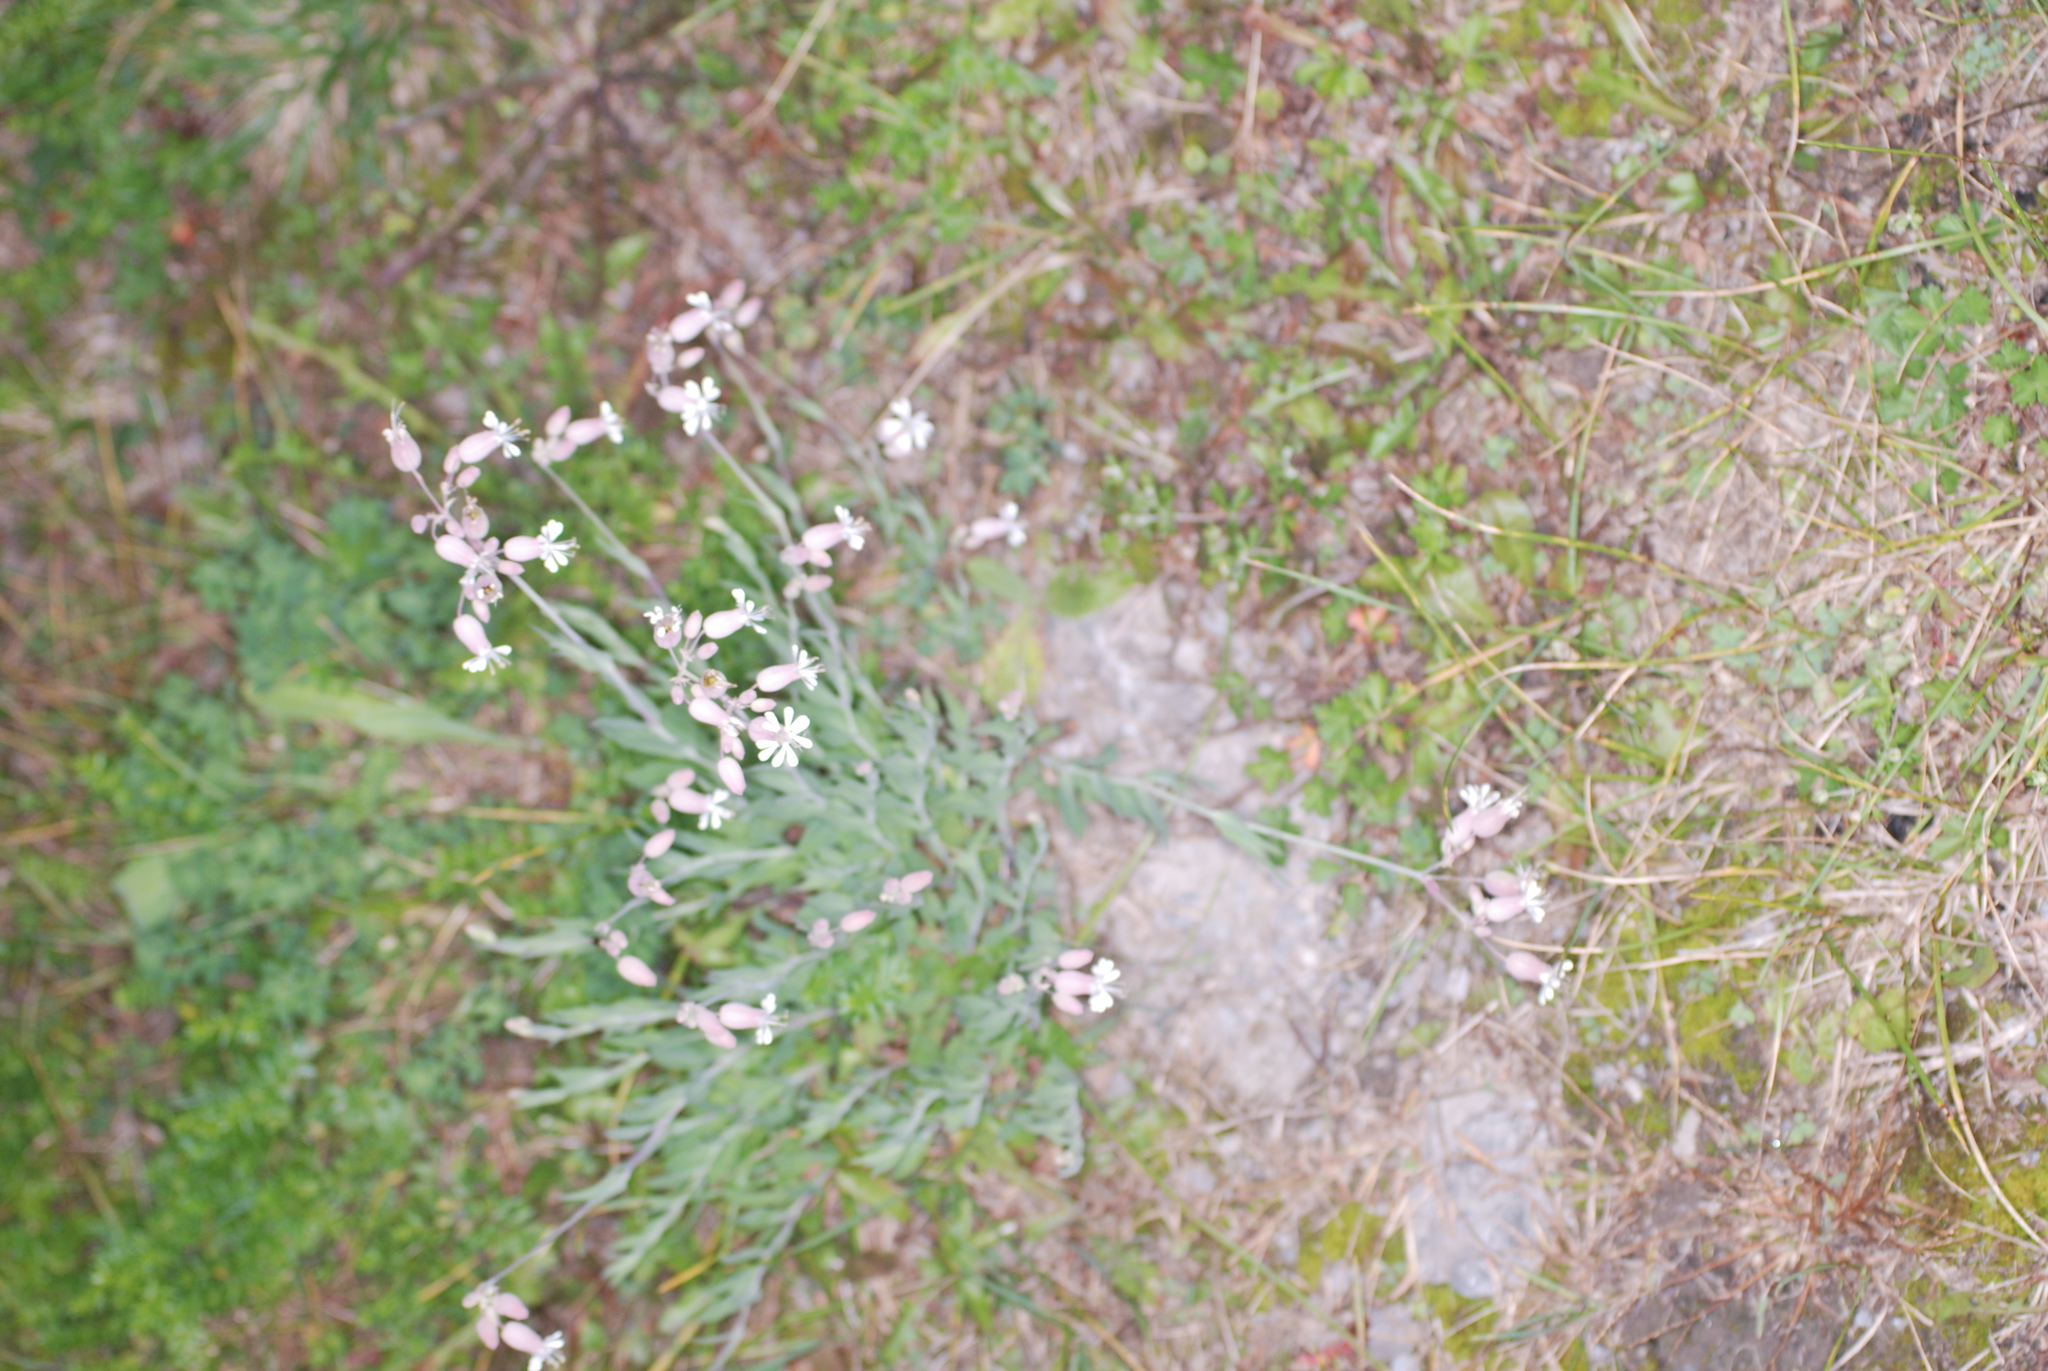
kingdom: Plantae
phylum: Tracheophyta
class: Magnoliopsida
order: Caryophyllales
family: Caryophyllaceae
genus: Silene
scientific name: Silene vulgaris
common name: Bladder campion
